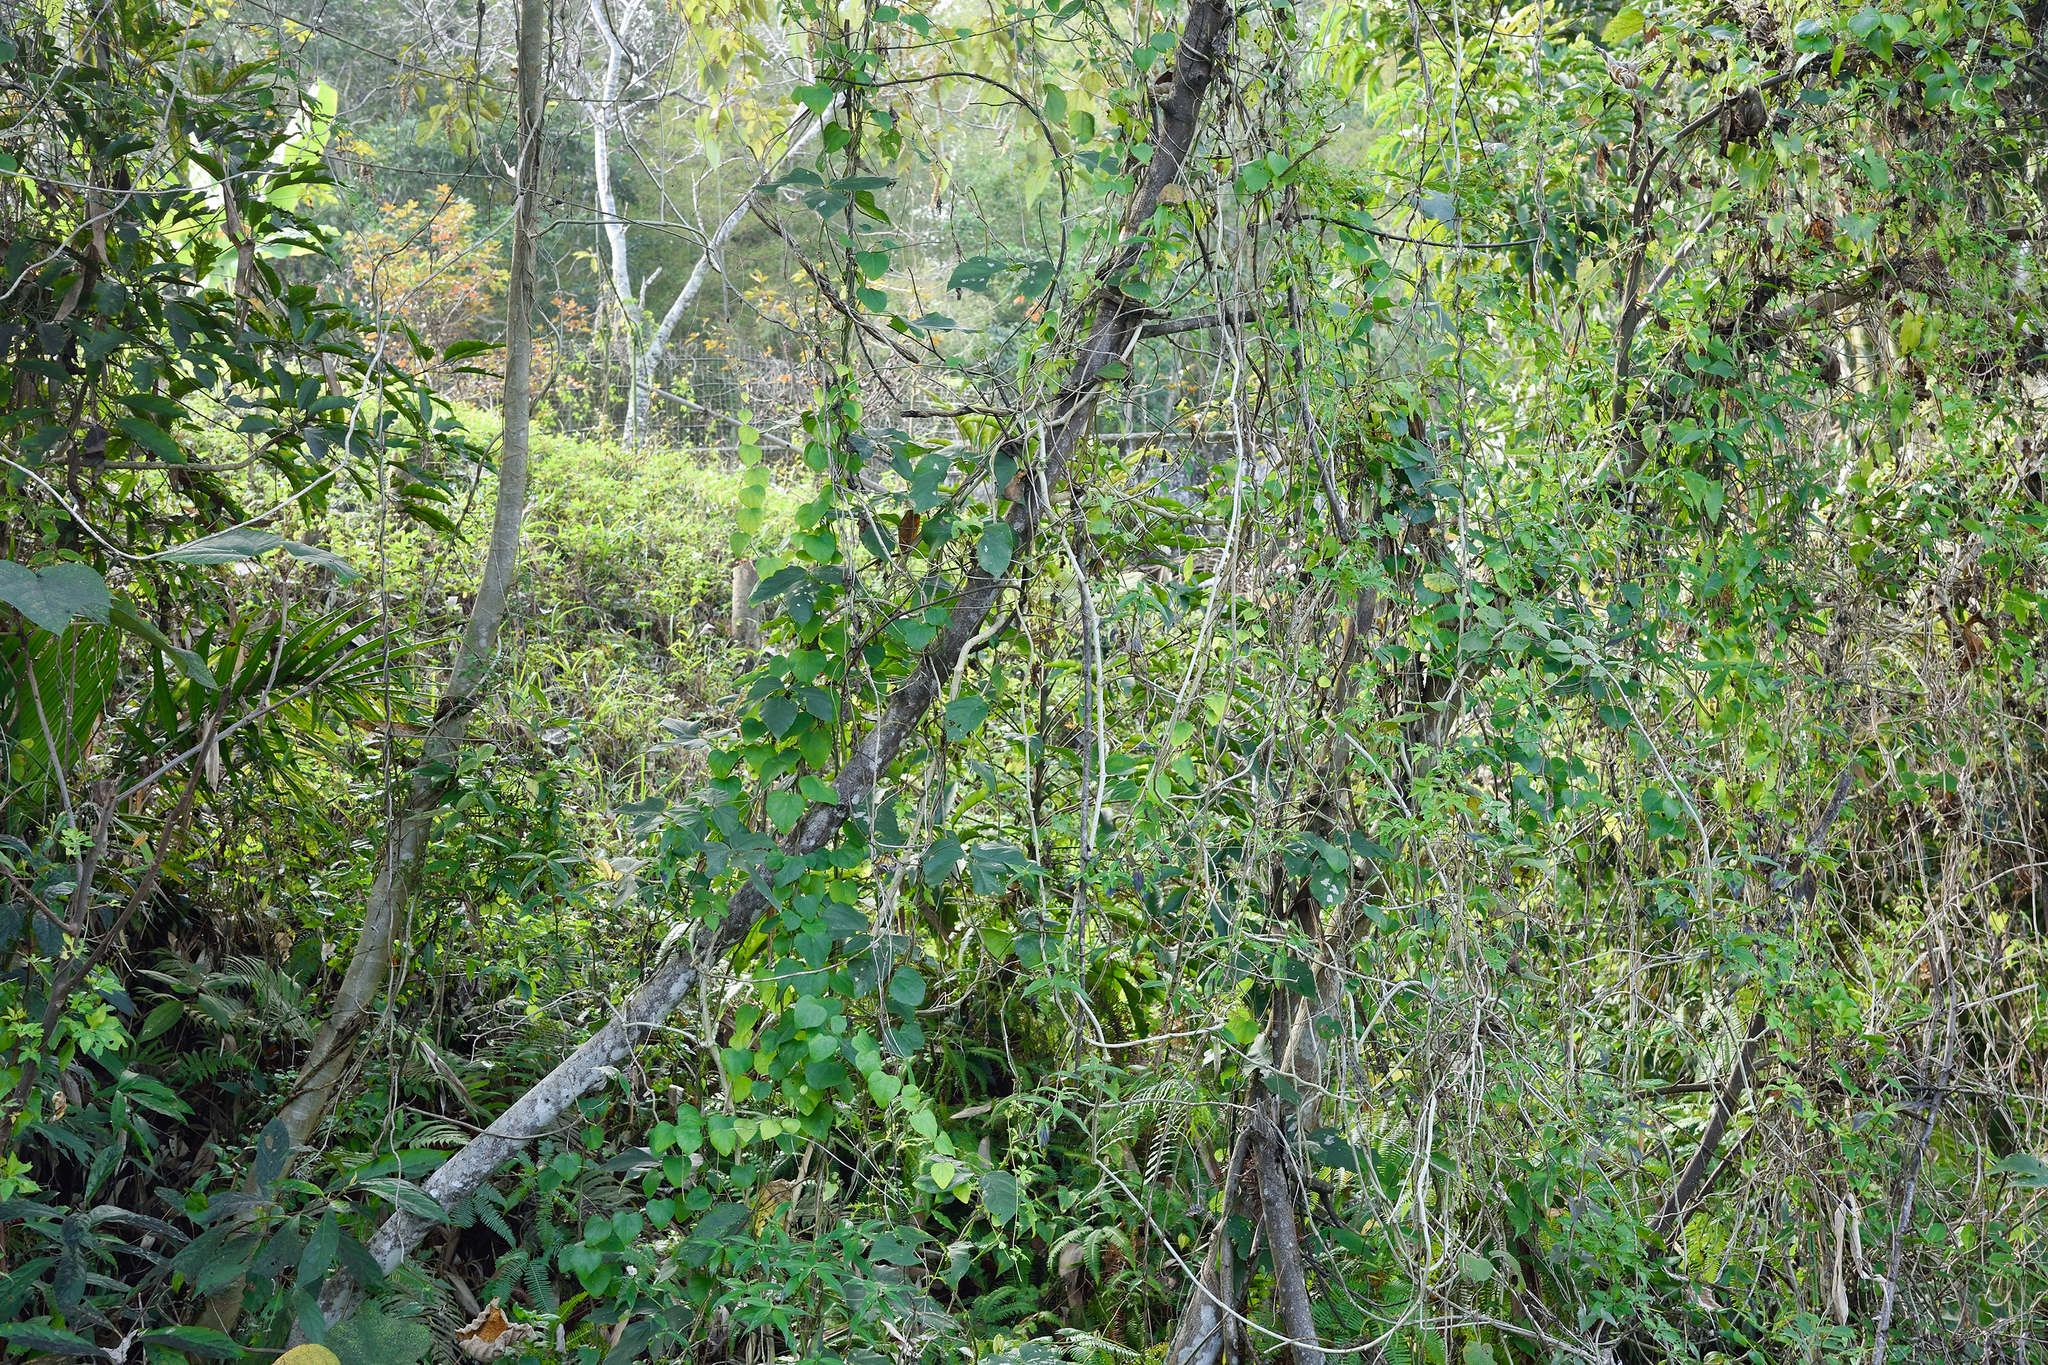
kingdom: Plantae
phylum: Tracheophyta
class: Magnoliopsida
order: Ranunculales
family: Menispermaceae
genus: Pericampylus
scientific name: Pericampylus glaucus
